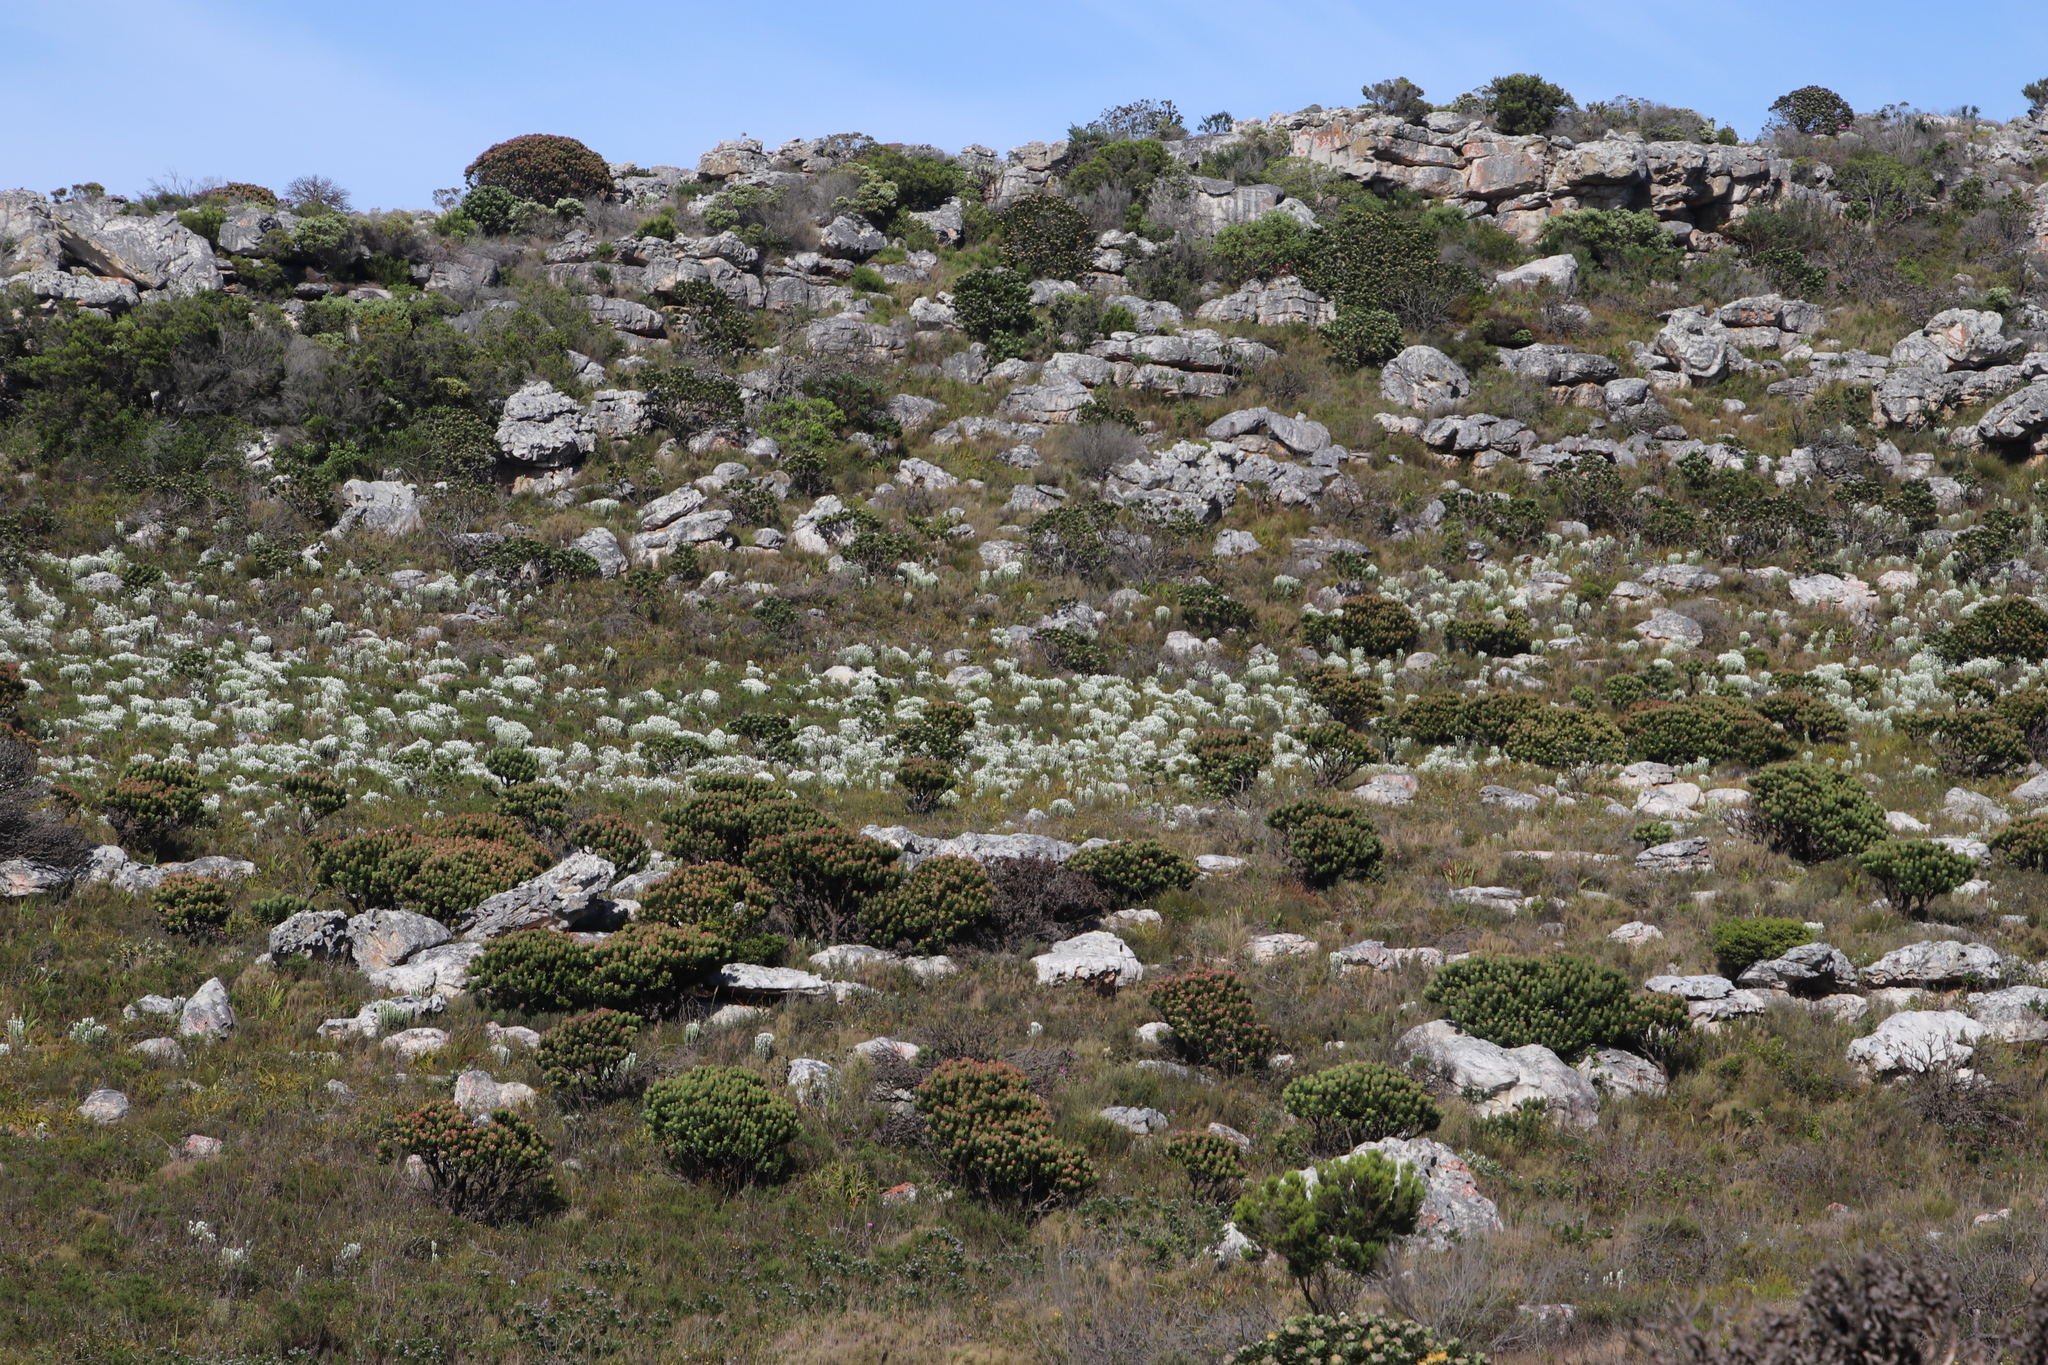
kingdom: Plantae
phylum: Tracheophyta
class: Magnoliopsida
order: Asterales
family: Asteraceae
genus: Syncarpha
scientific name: Syncarpha vestita
